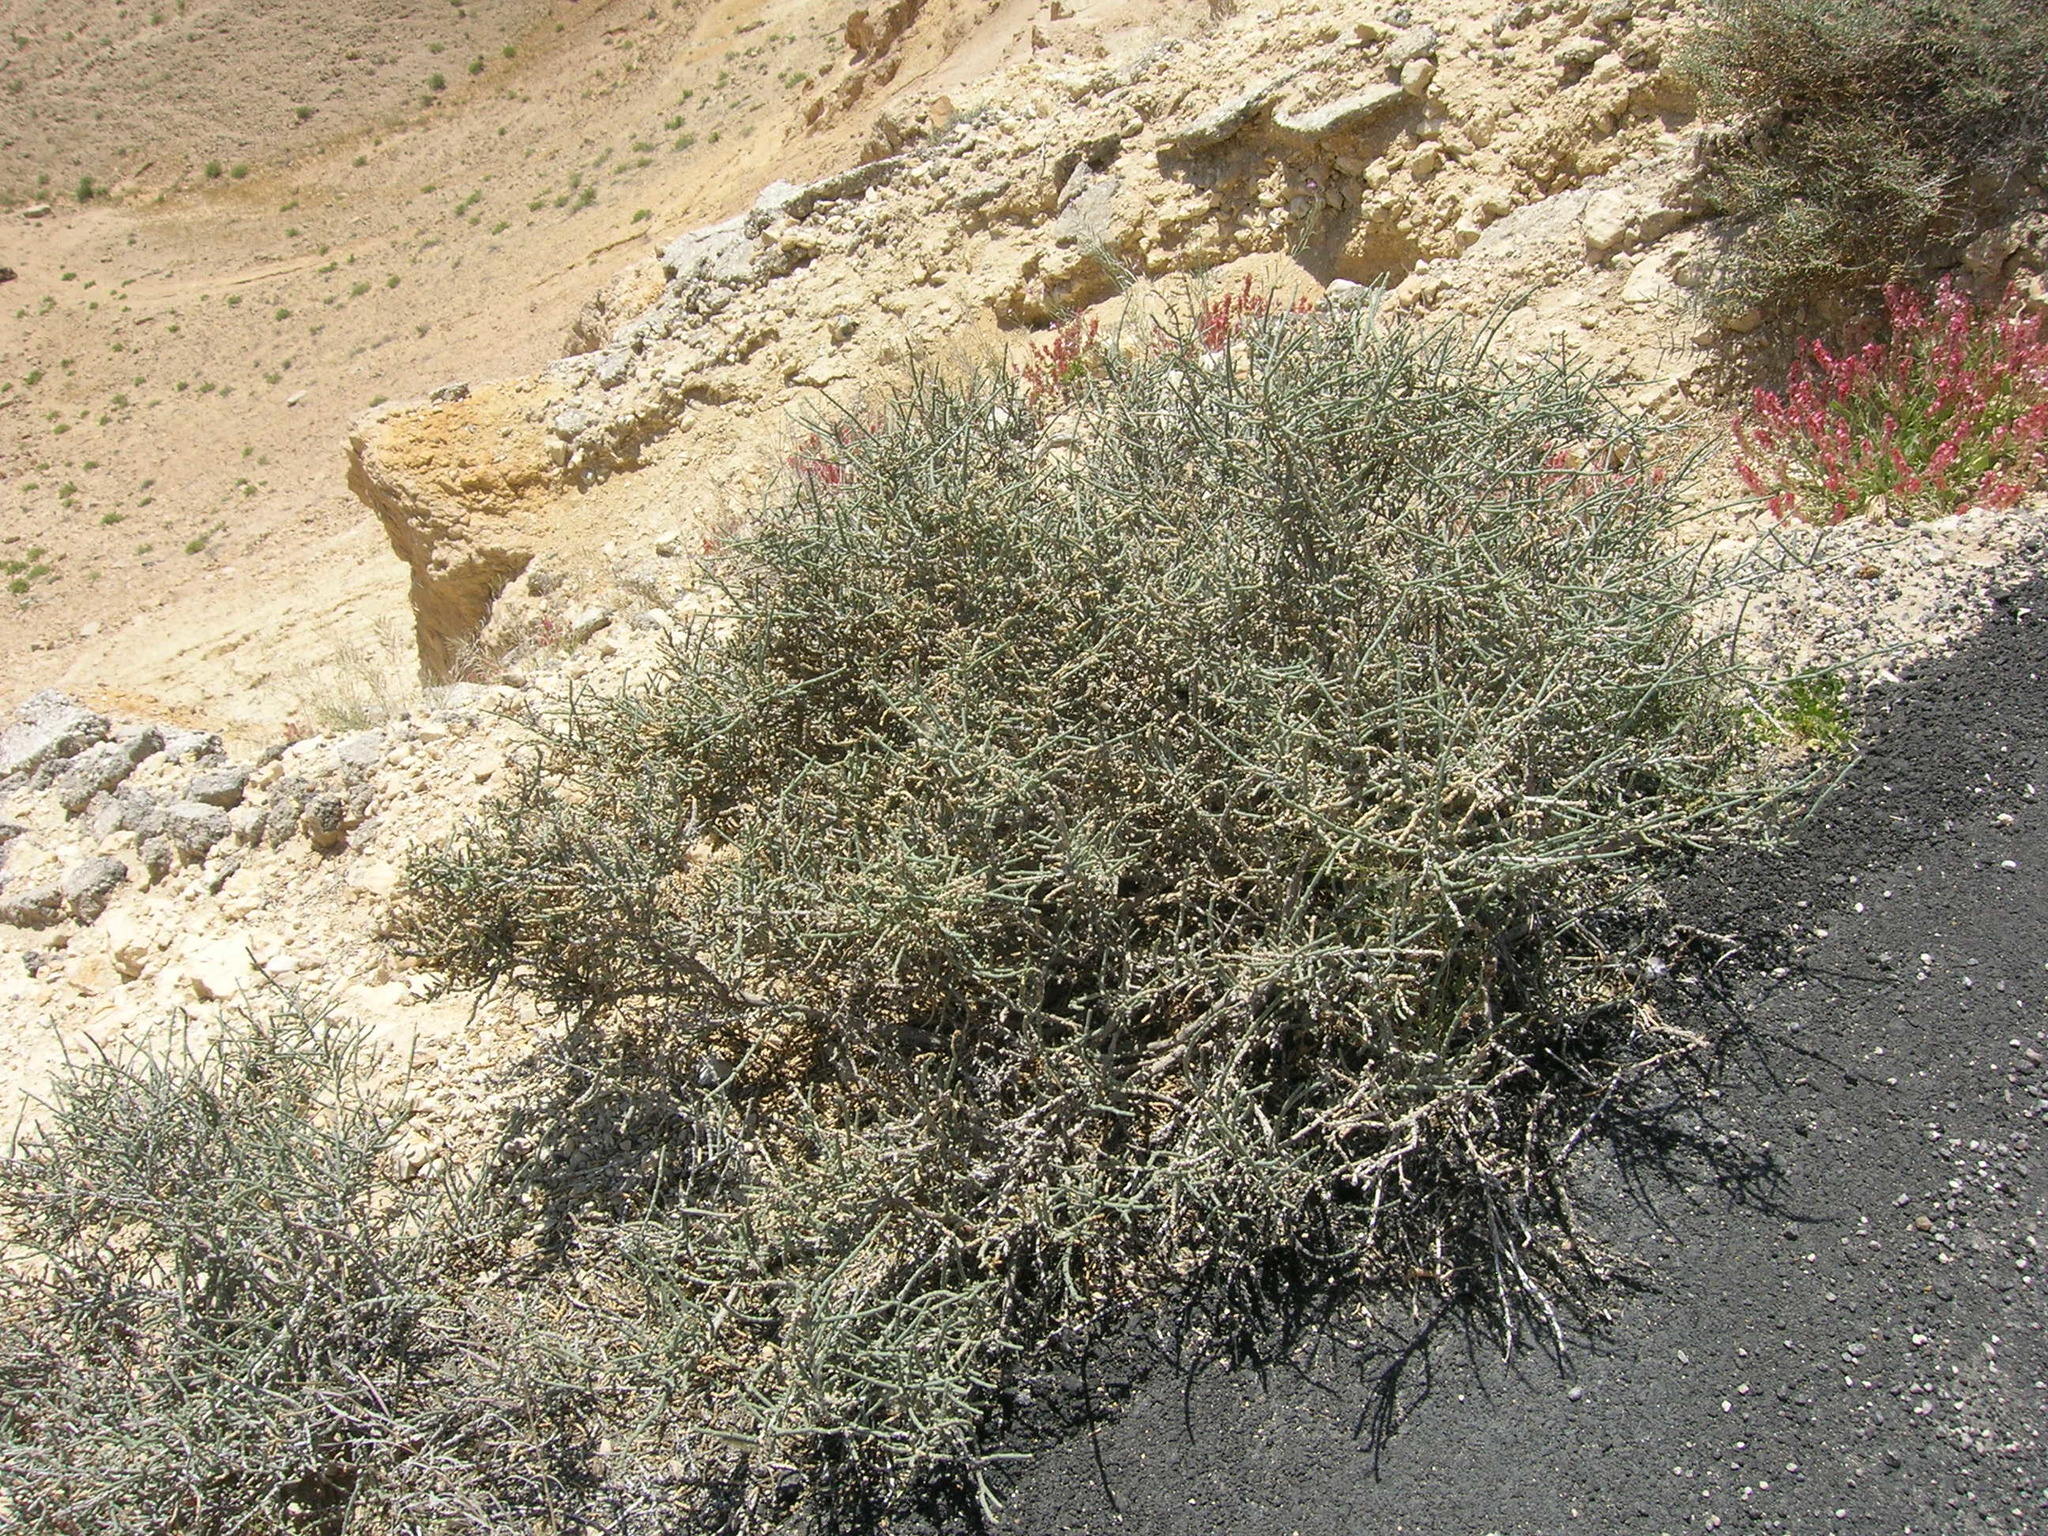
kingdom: Plantae
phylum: Tracheophyta
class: Magnoliopsida
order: Caryophyllales
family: Amaranthaceae
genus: Anabasis
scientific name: Anabasis articulata
